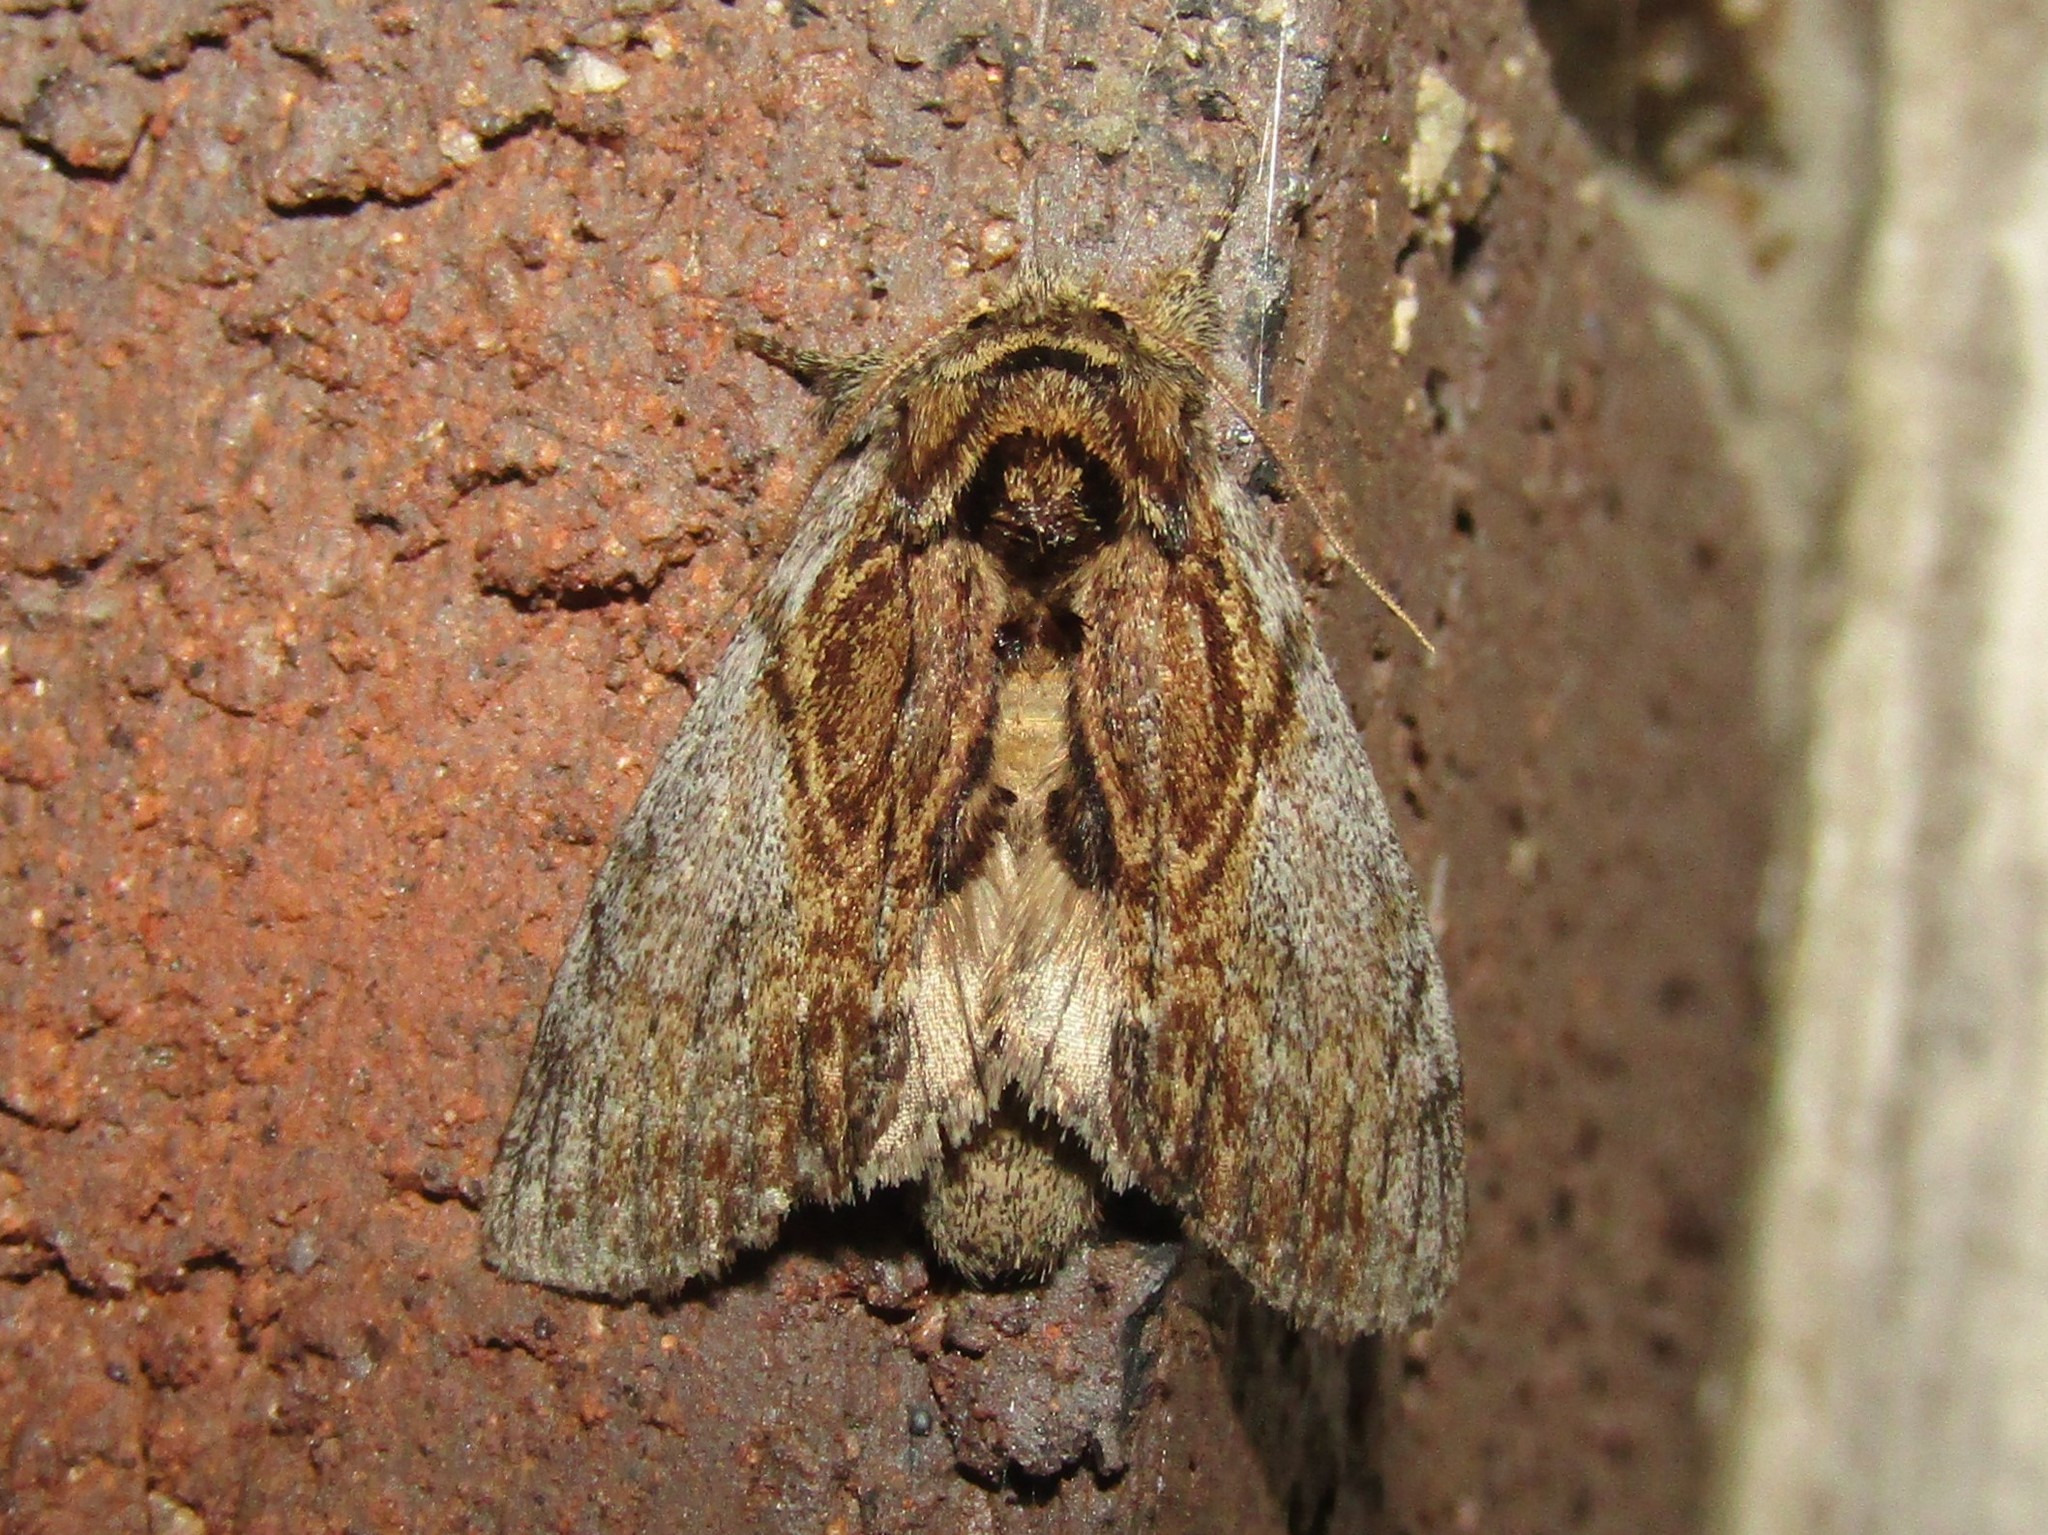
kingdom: Animalia
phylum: Arthropoda
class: Insecta
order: Lepidoptera
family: Notodontidae
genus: Peridea
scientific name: Peridea basitriens
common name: Oval-based prominent
